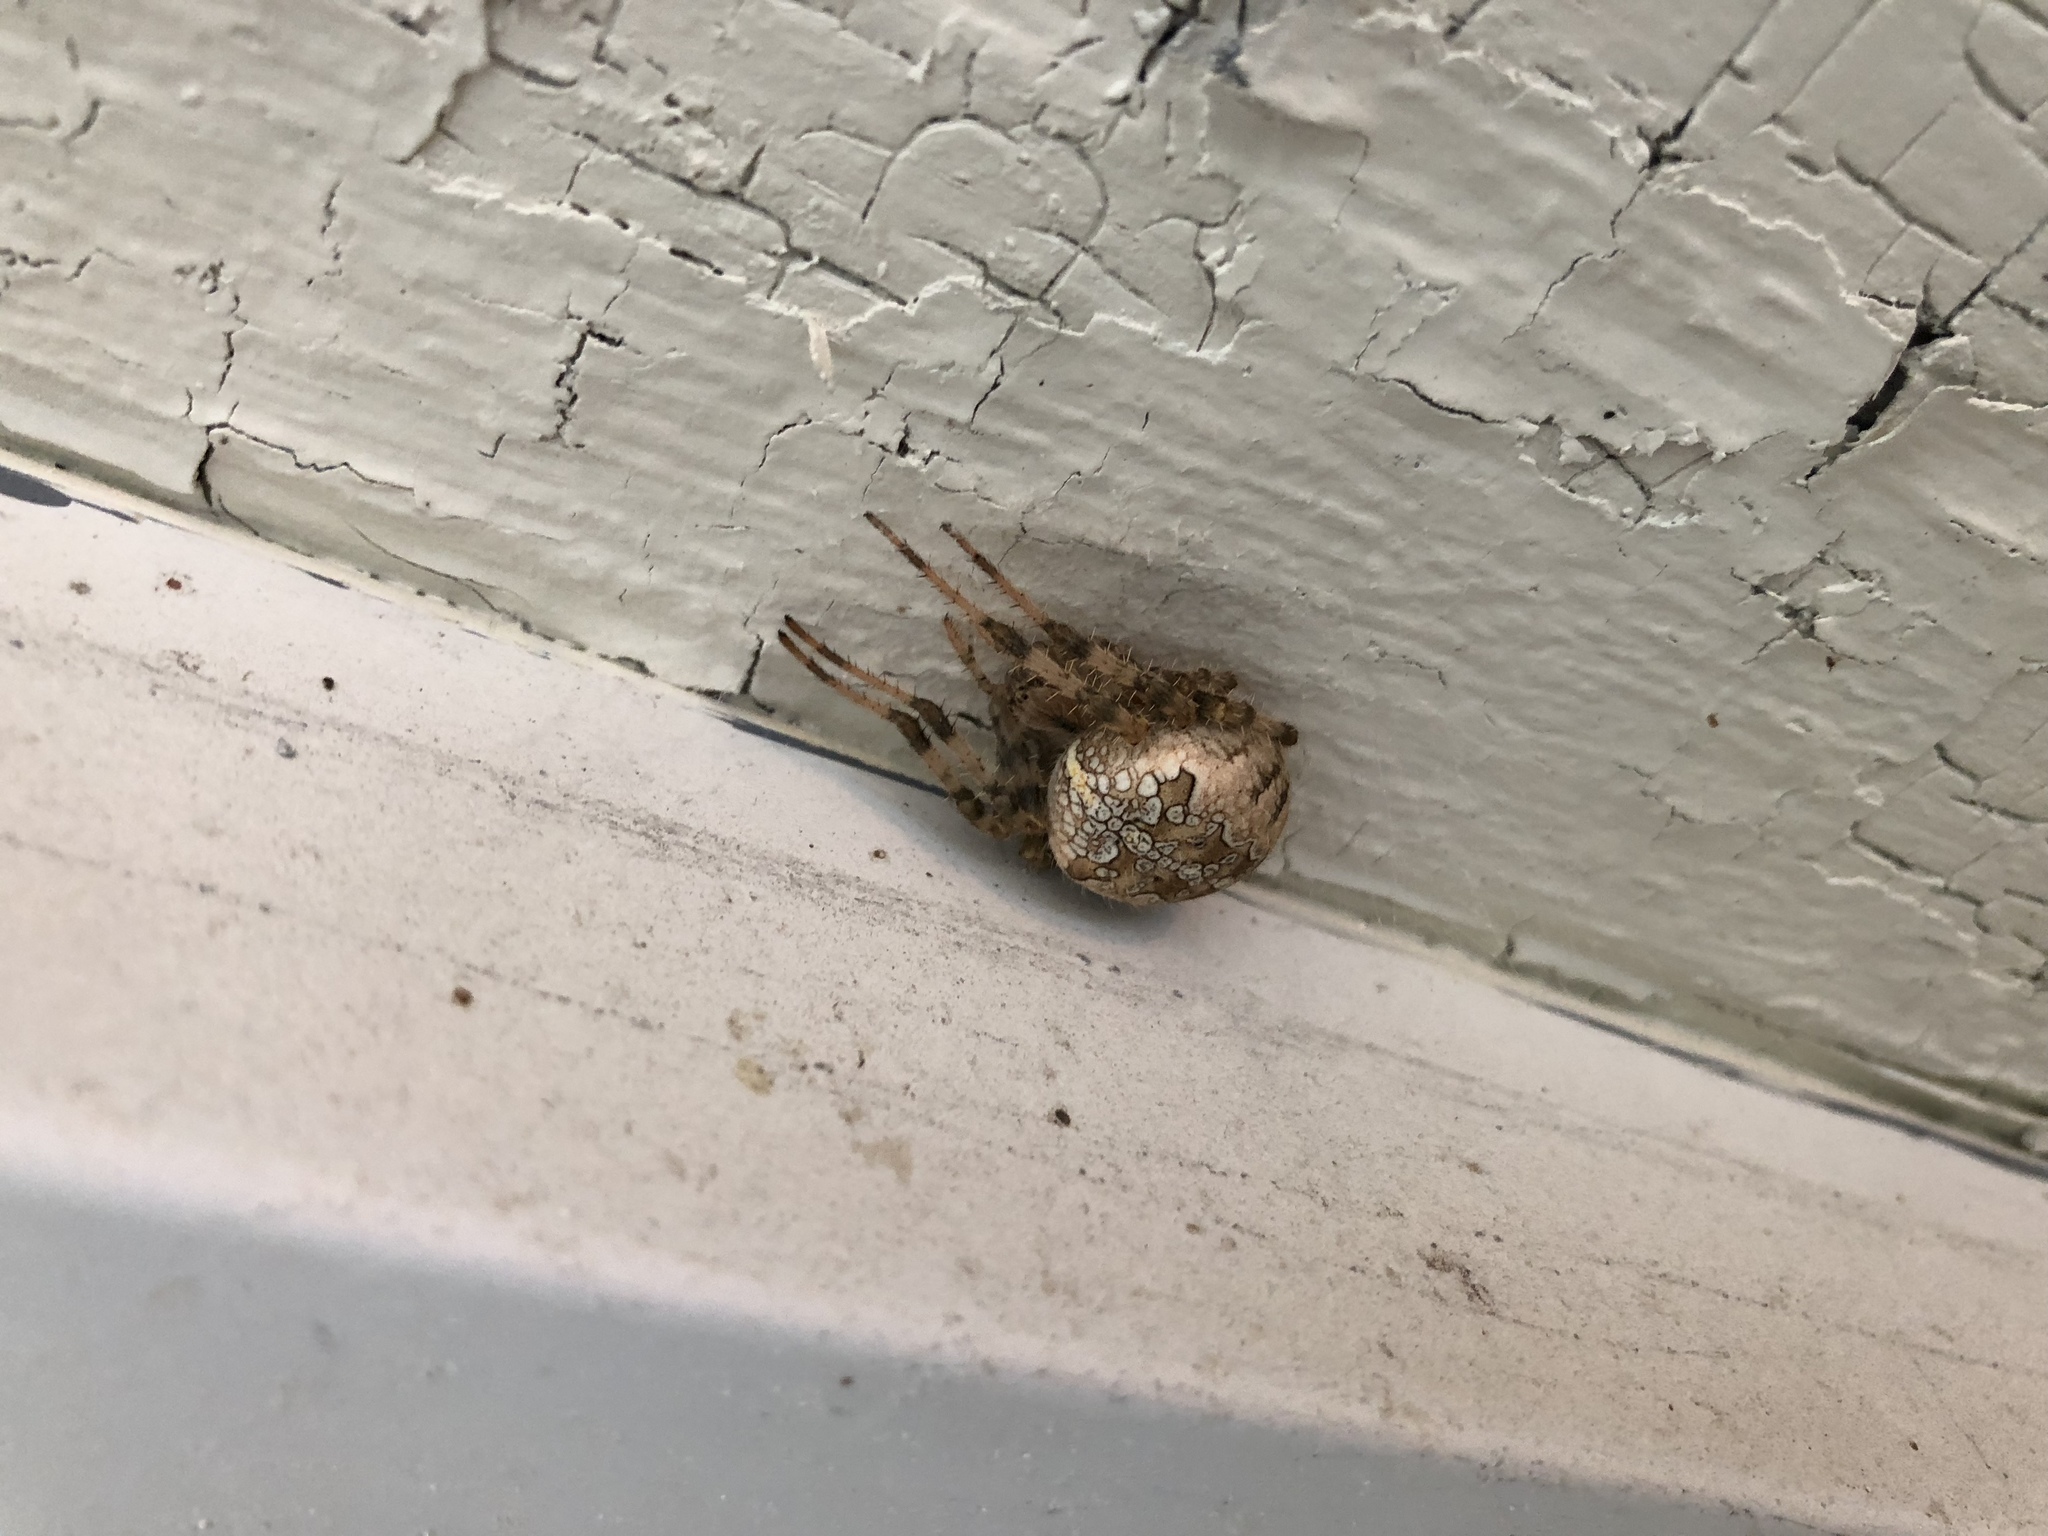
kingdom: Animalia
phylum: Arthropoda
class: Arachnida
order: Araneae
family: Araneidae
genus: Araneus
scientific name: Araneus diadematus
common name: Cross orbweaver
